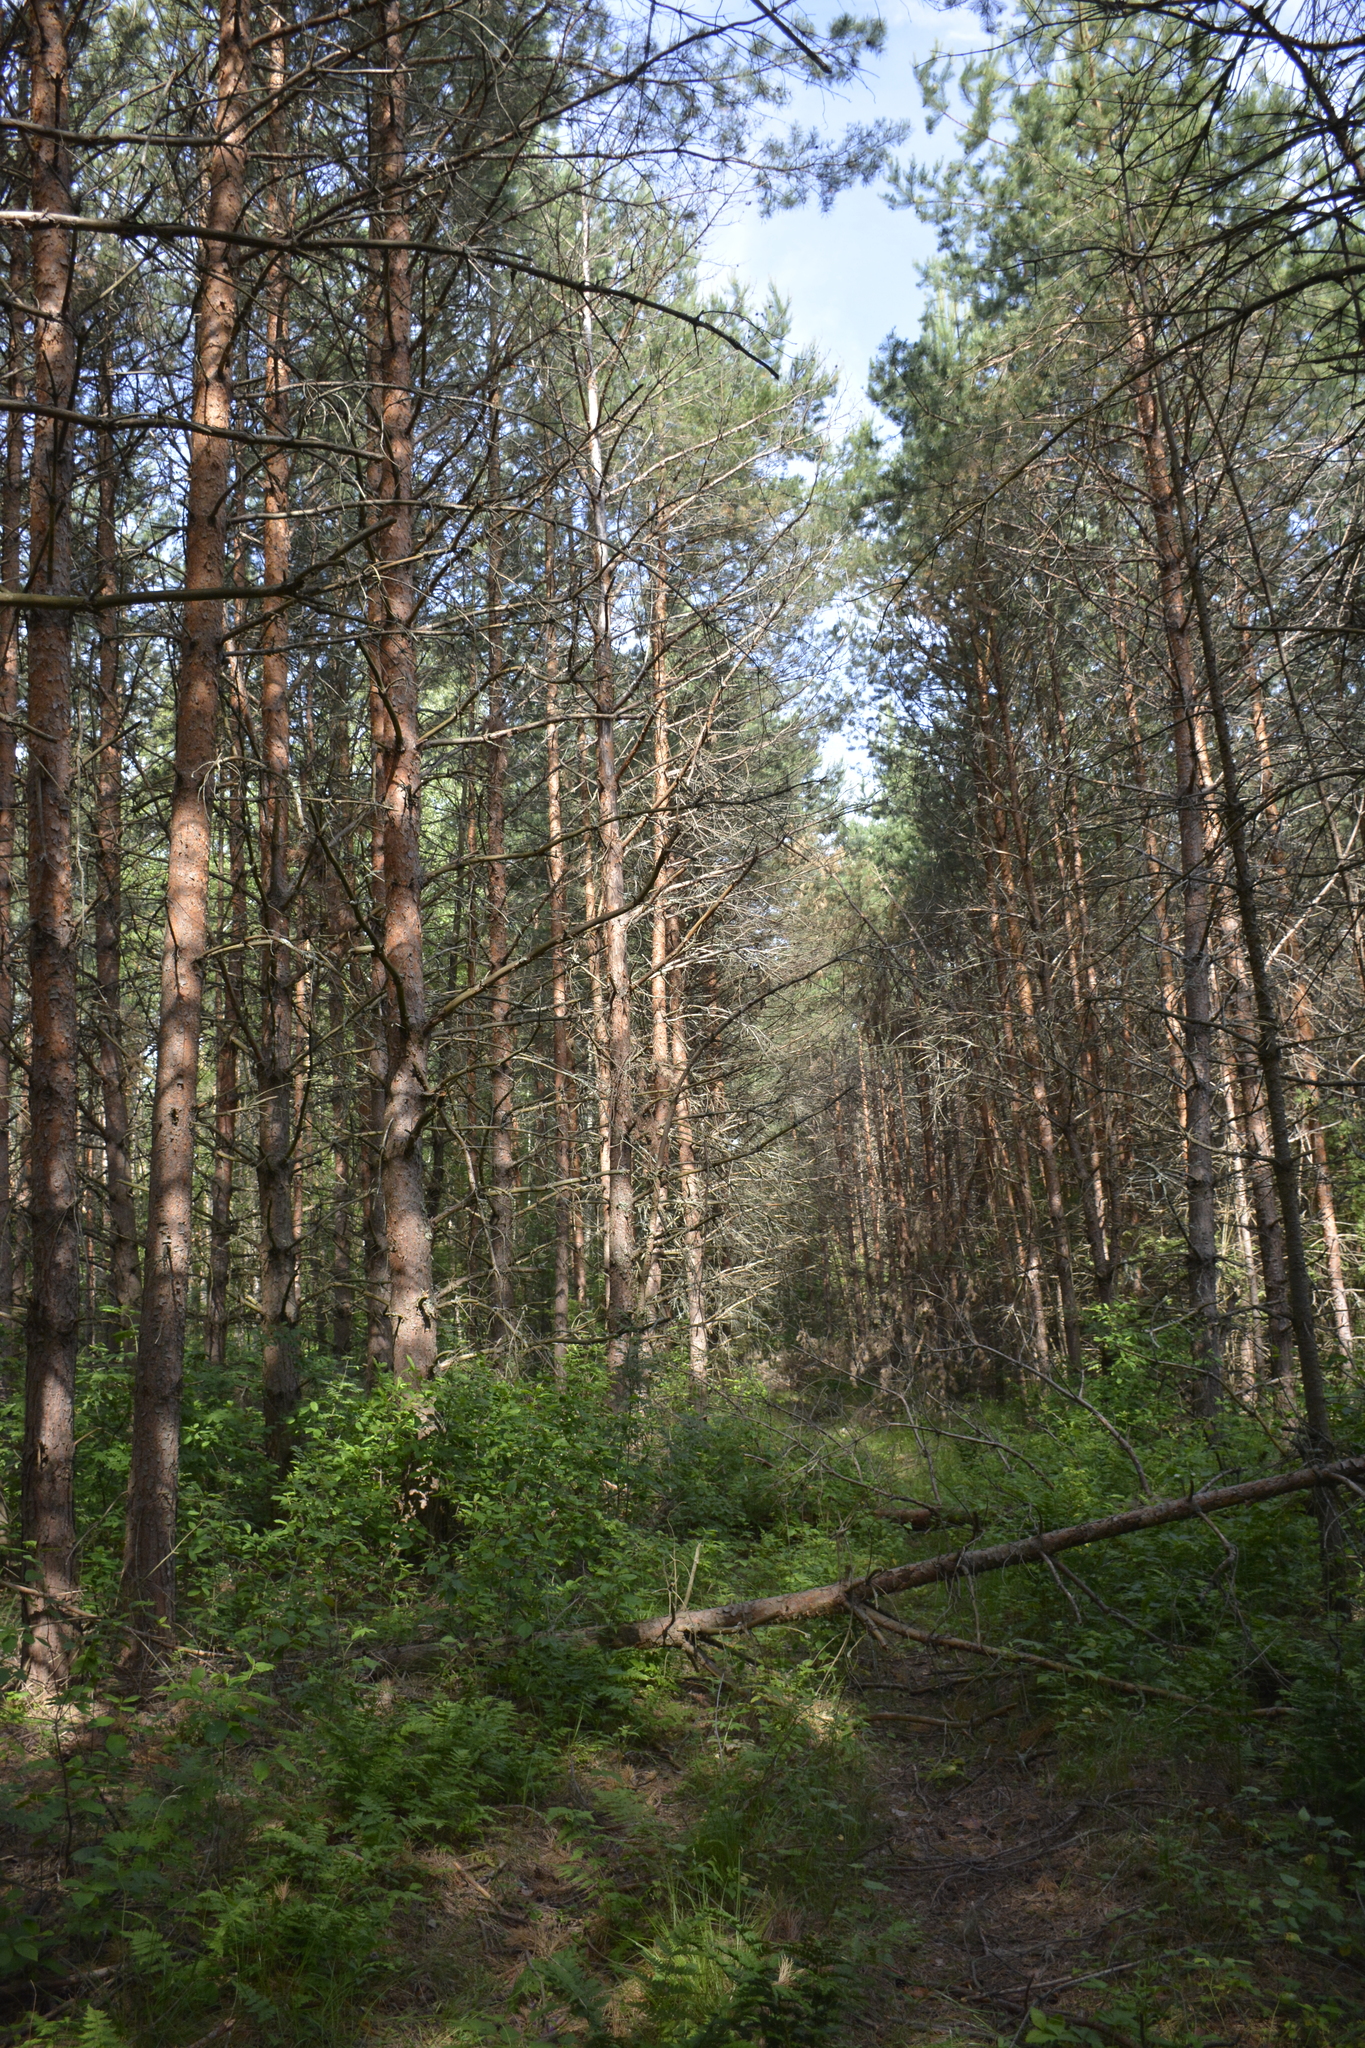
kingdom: Plantae
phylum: Tracheophyta
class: Pinopsida
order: Pinales
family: Pinaceae
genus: Pinus
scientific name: Pinus sylvestris
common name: Scots pine
